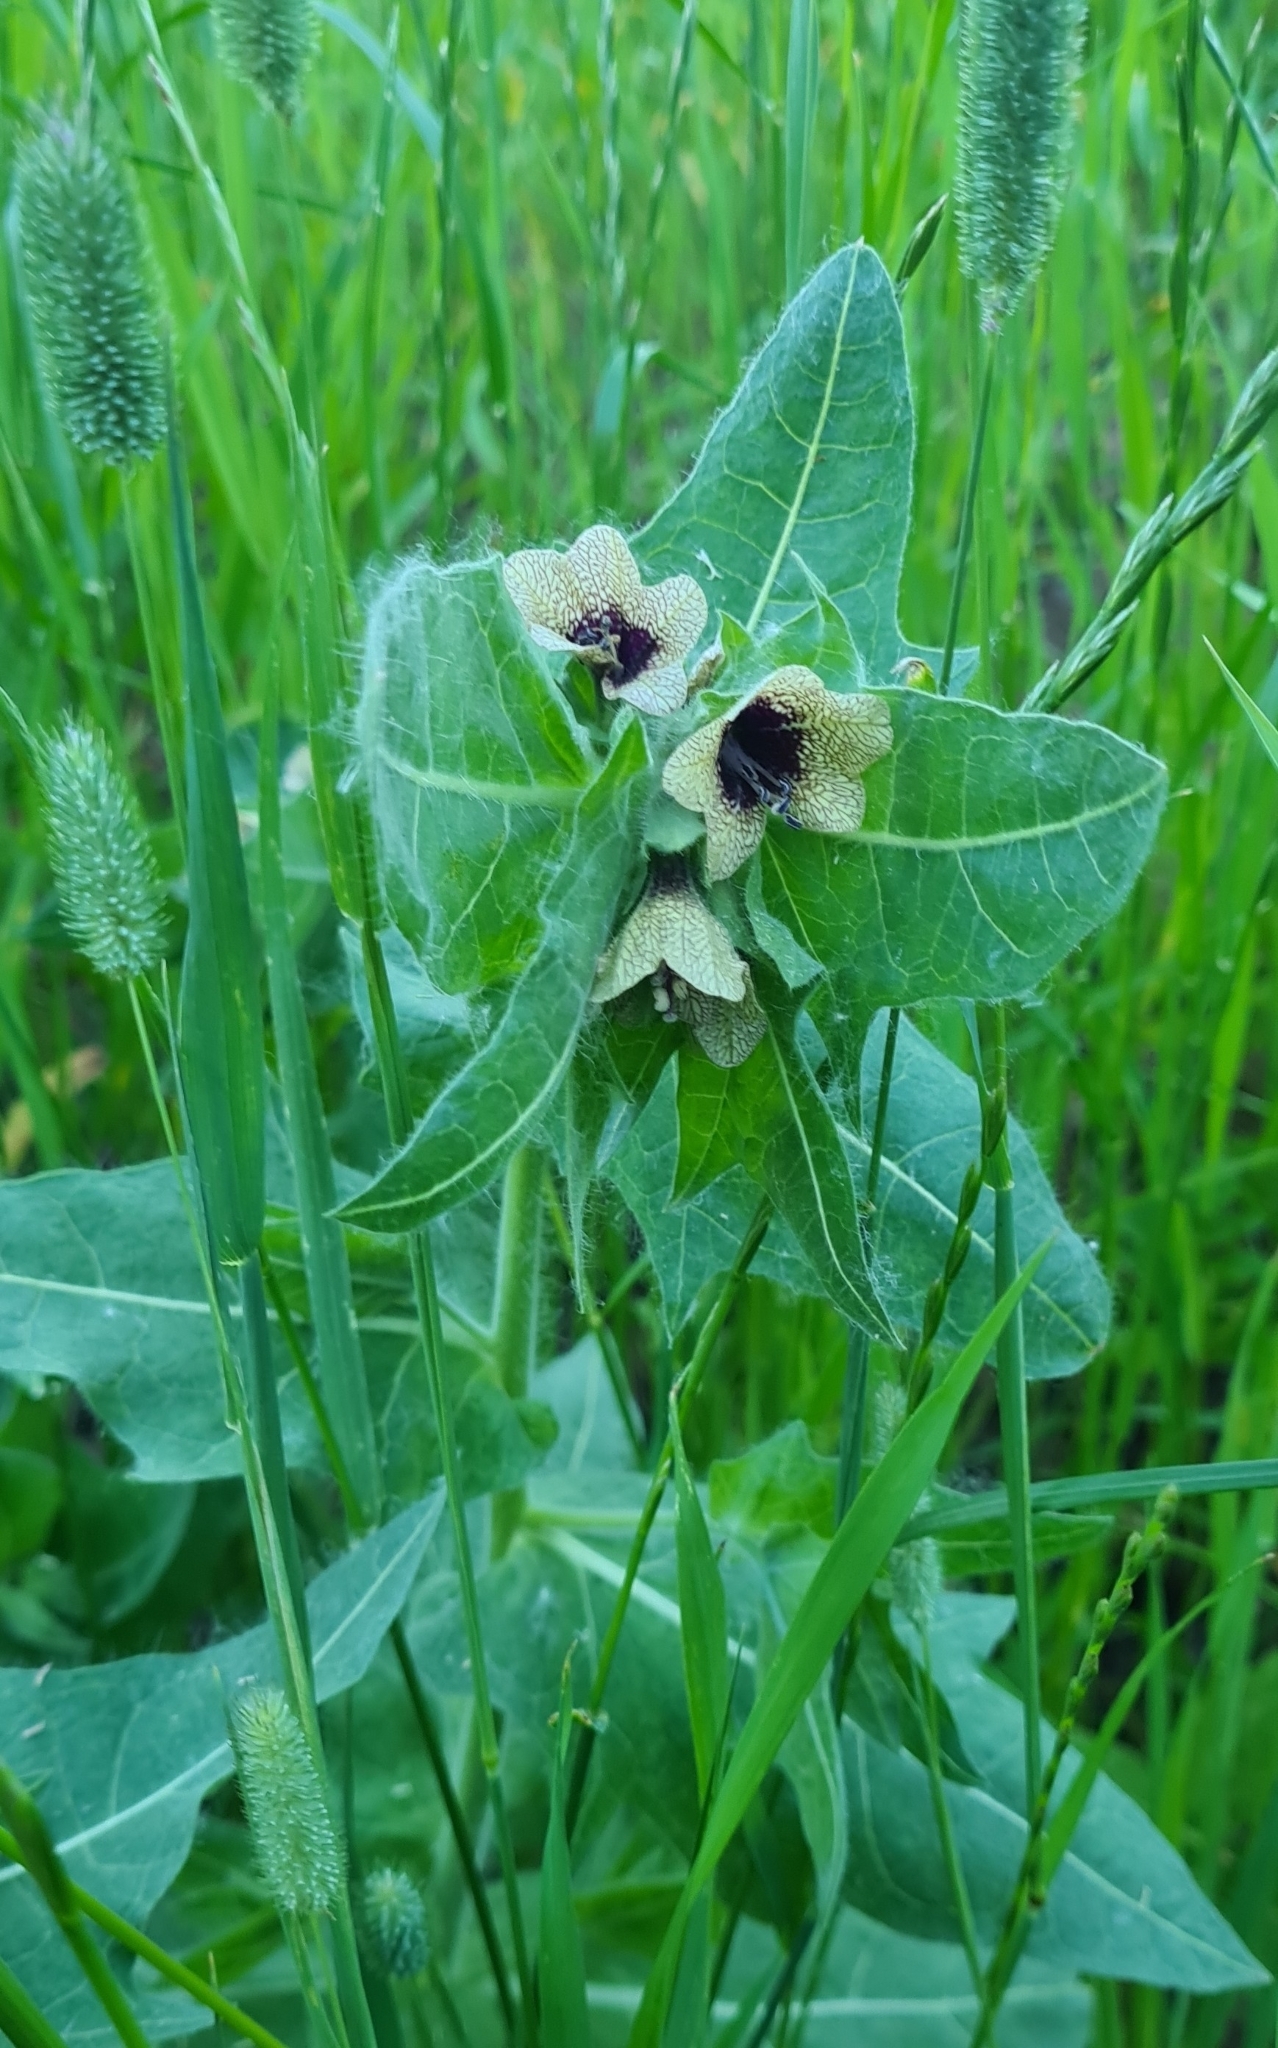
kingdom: Plantae
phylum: Tracheophyta
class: Magnoliopsida
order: Solanales
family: Solanaceae
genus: Hyoscyamus
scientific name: Hyoscyamus niger
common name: Henbane
